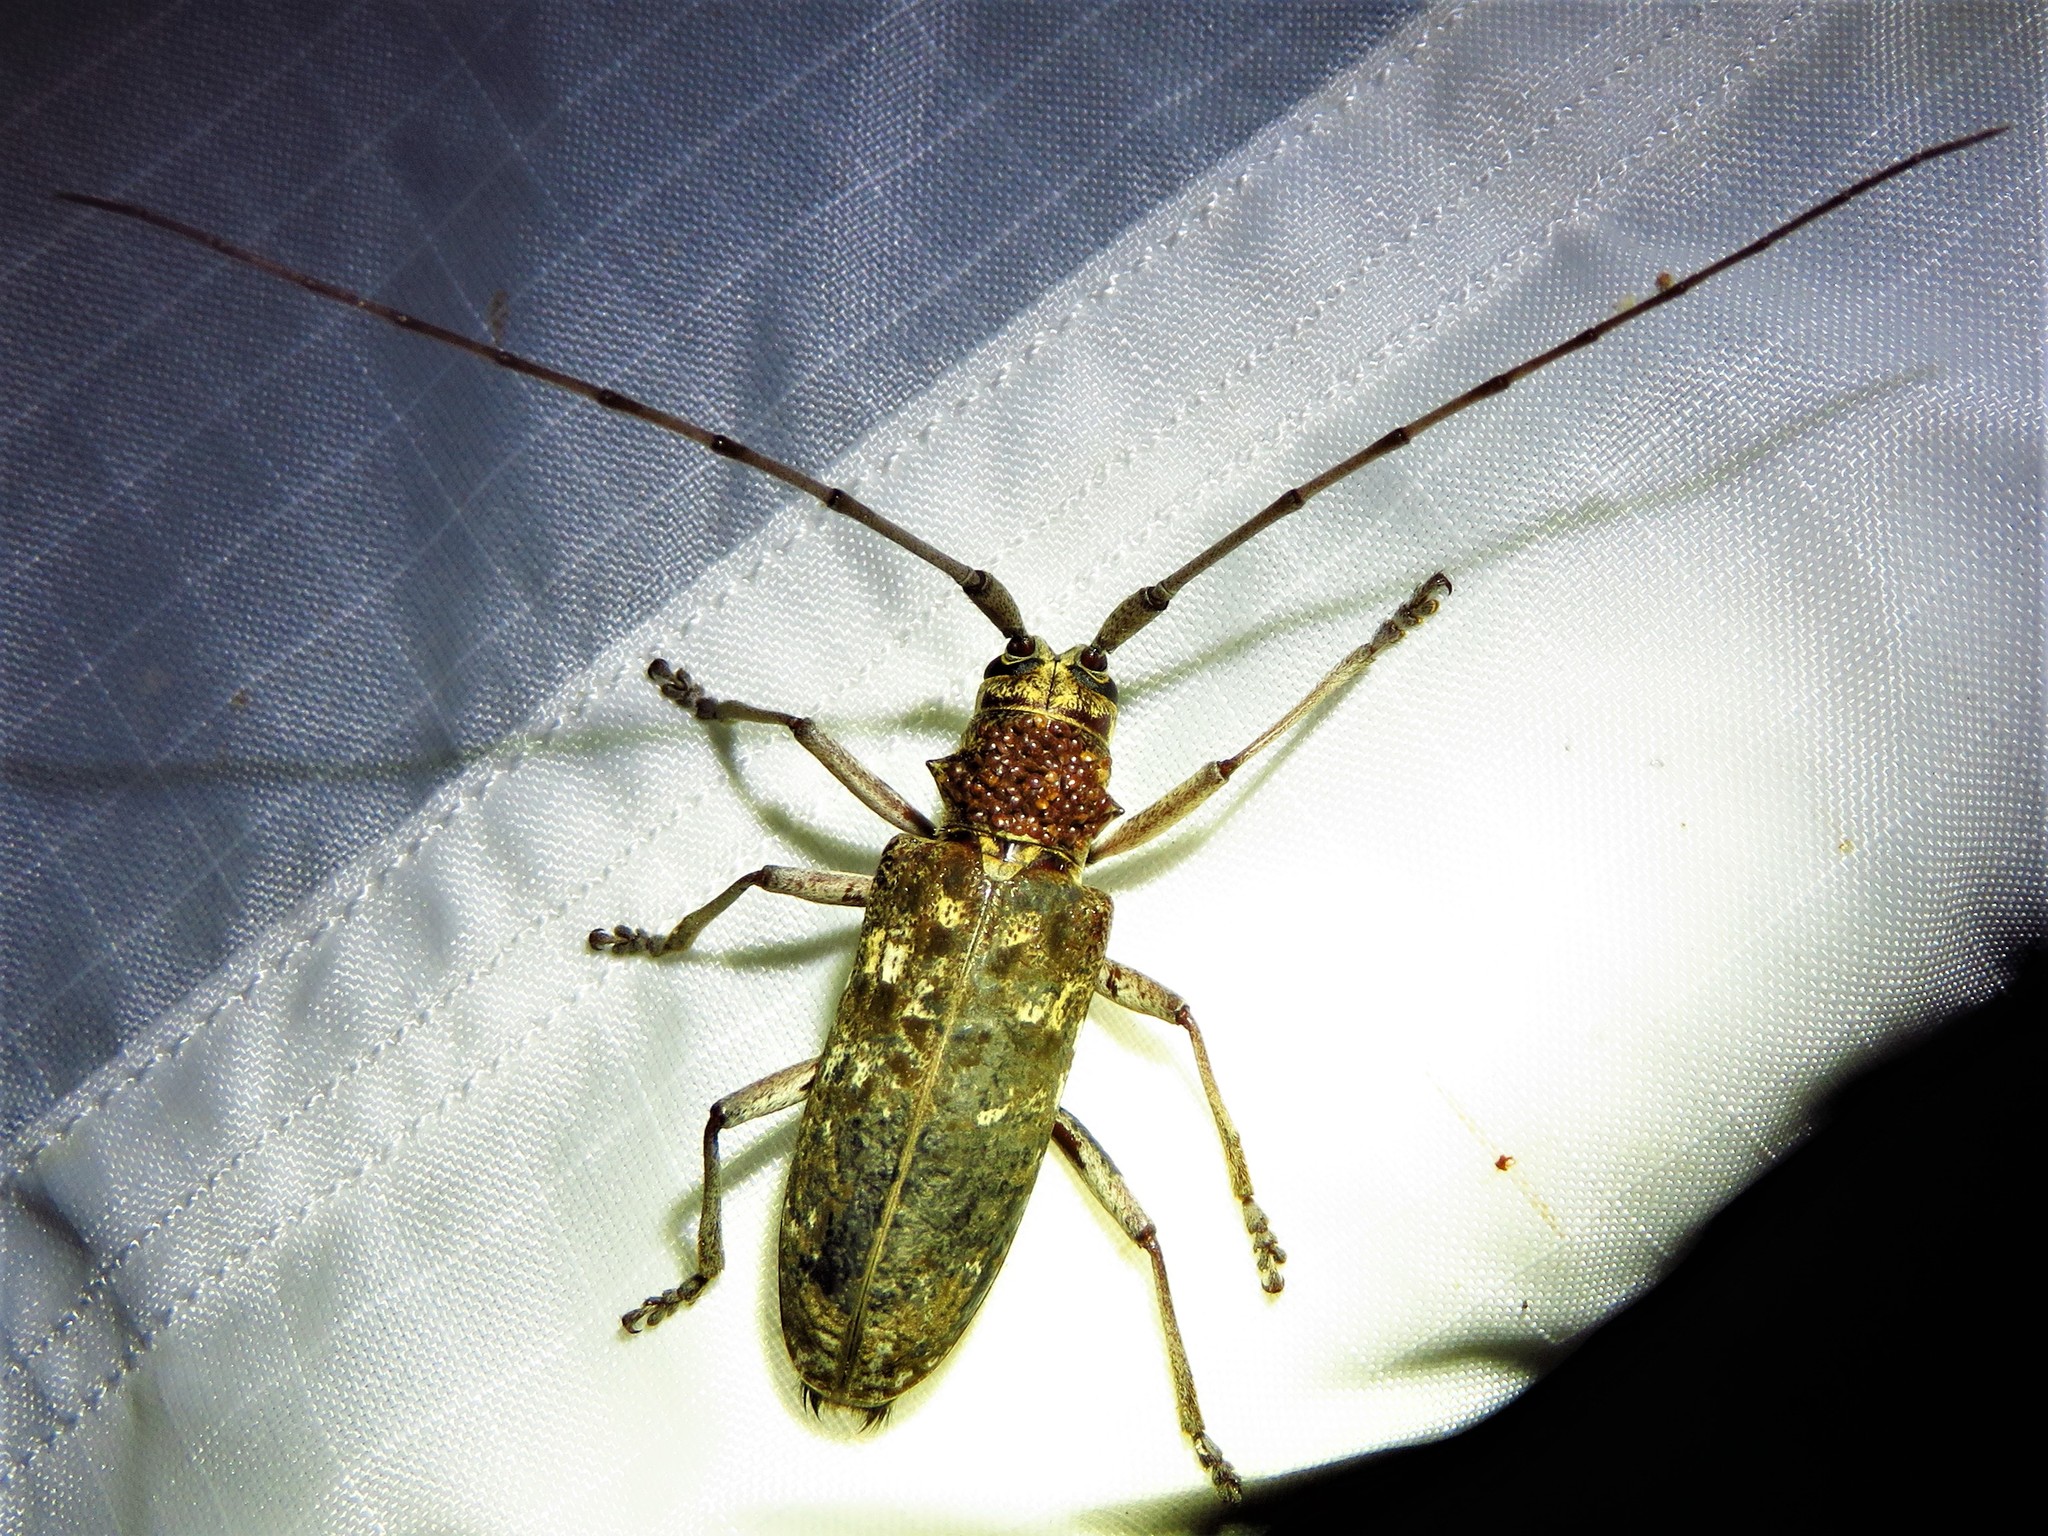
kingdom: Animalia
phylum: Arthropoda
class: Insecta
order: Coleoptera
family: Cerambycidae
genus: Monochamus
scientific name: Monochamus carolinensis
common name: Carolina pine sawyer
